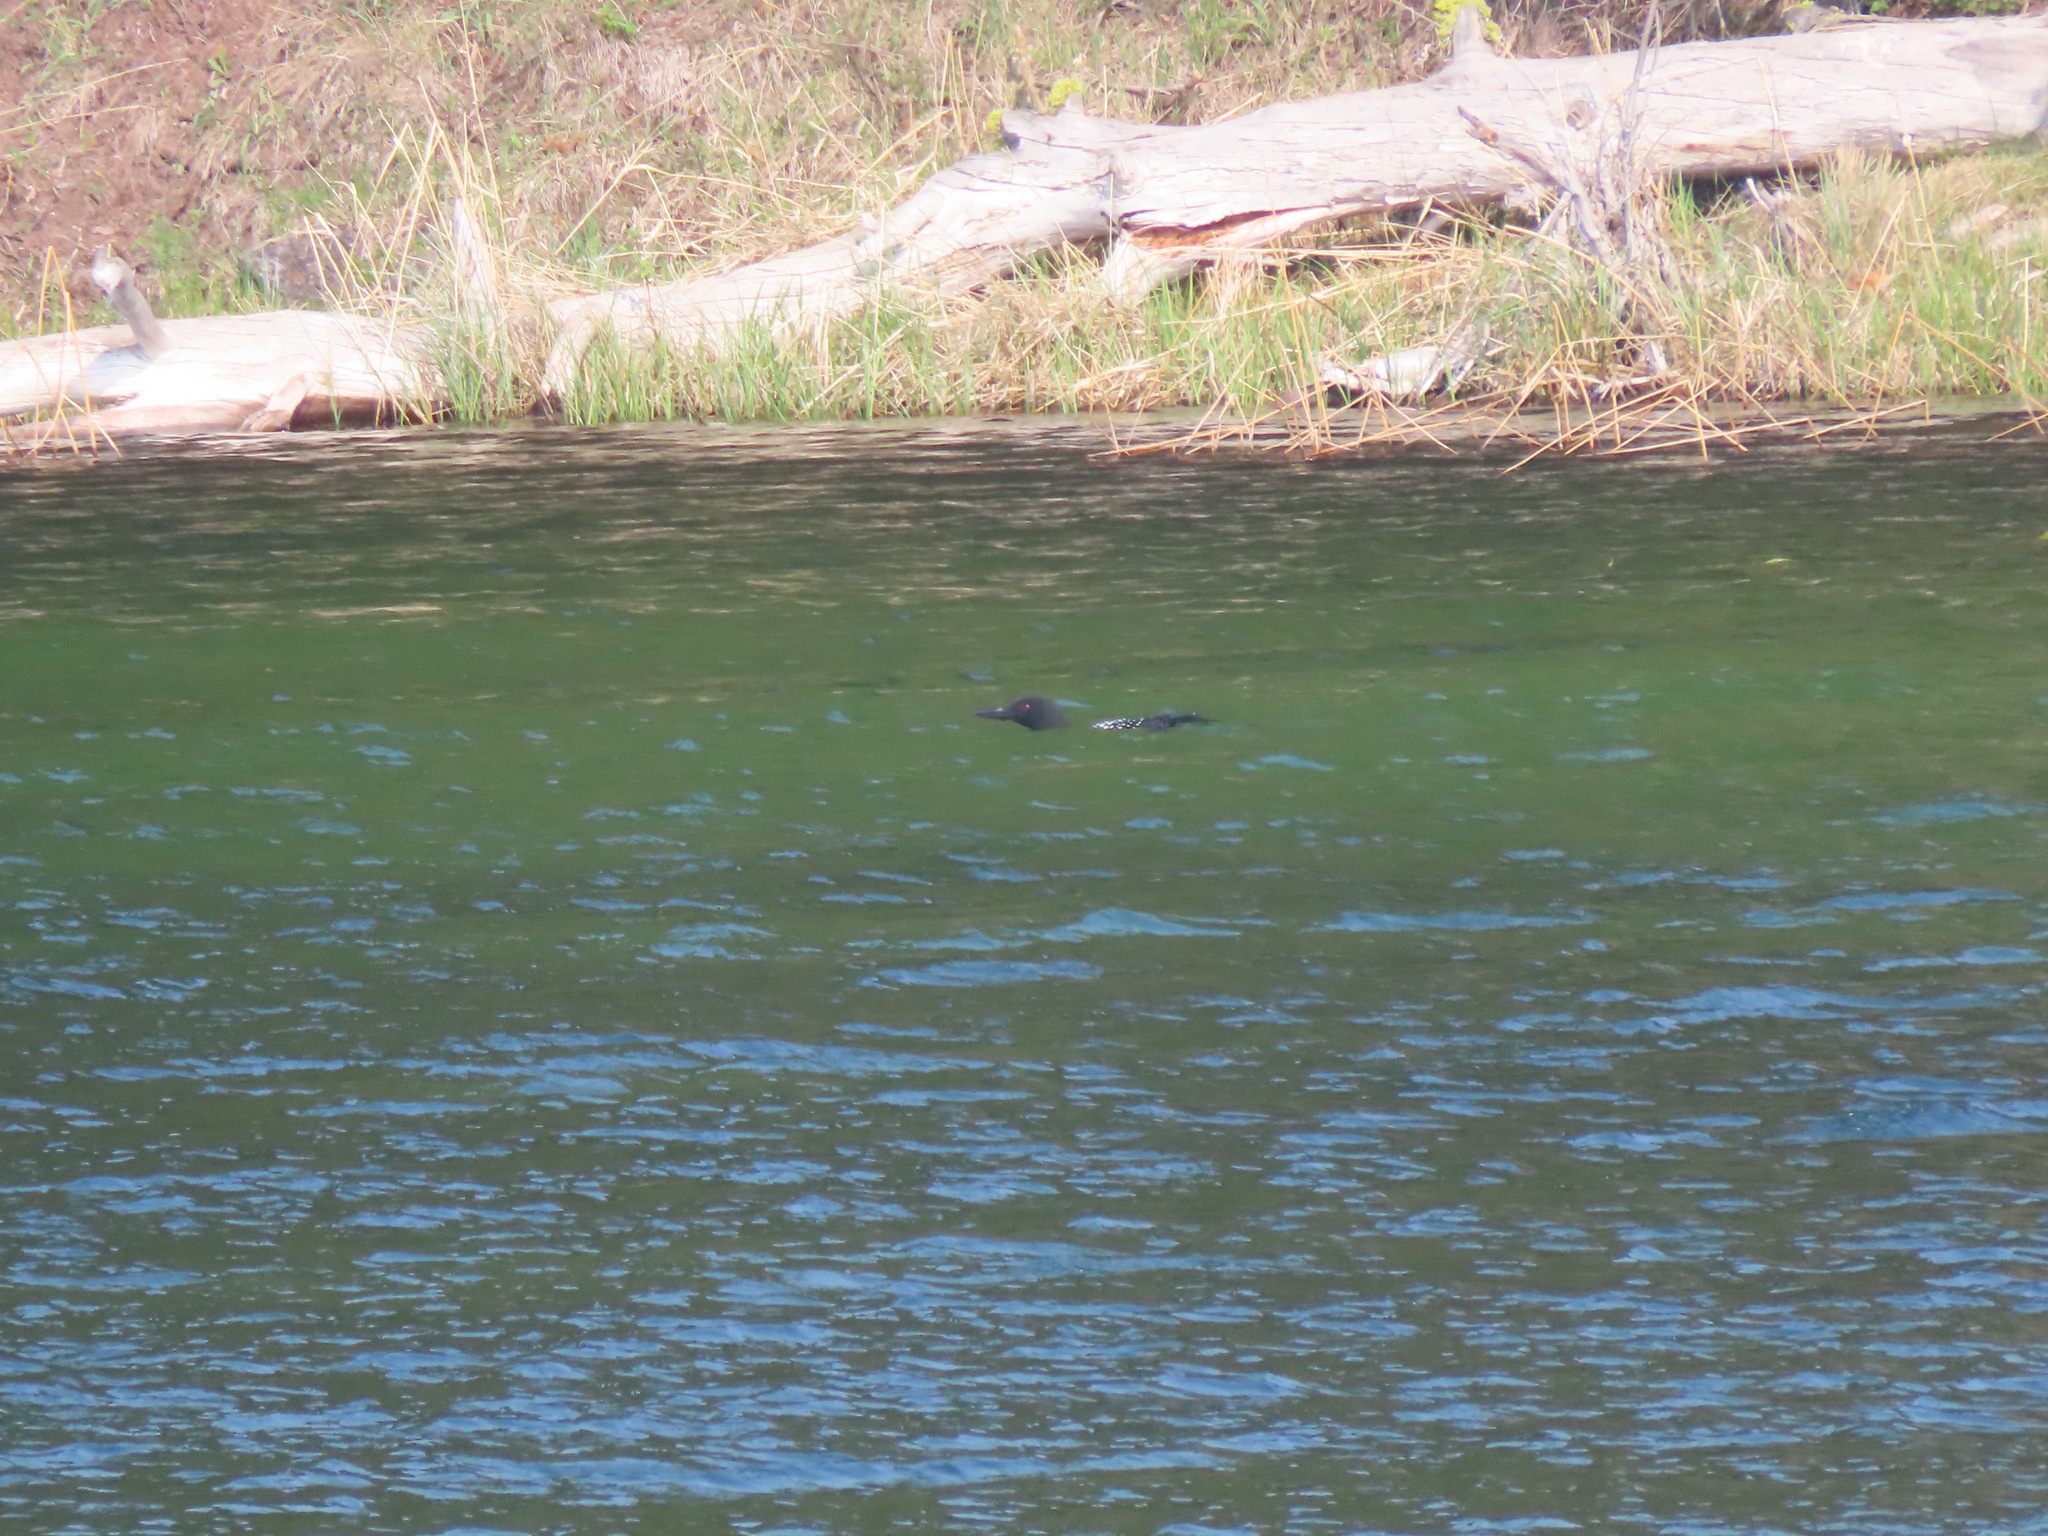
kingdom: Animalia
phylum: Chordata
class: Aves
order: Gaviiformes
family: Gaviidae
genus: Gavia
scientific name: Gavia immer
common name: Common loon
